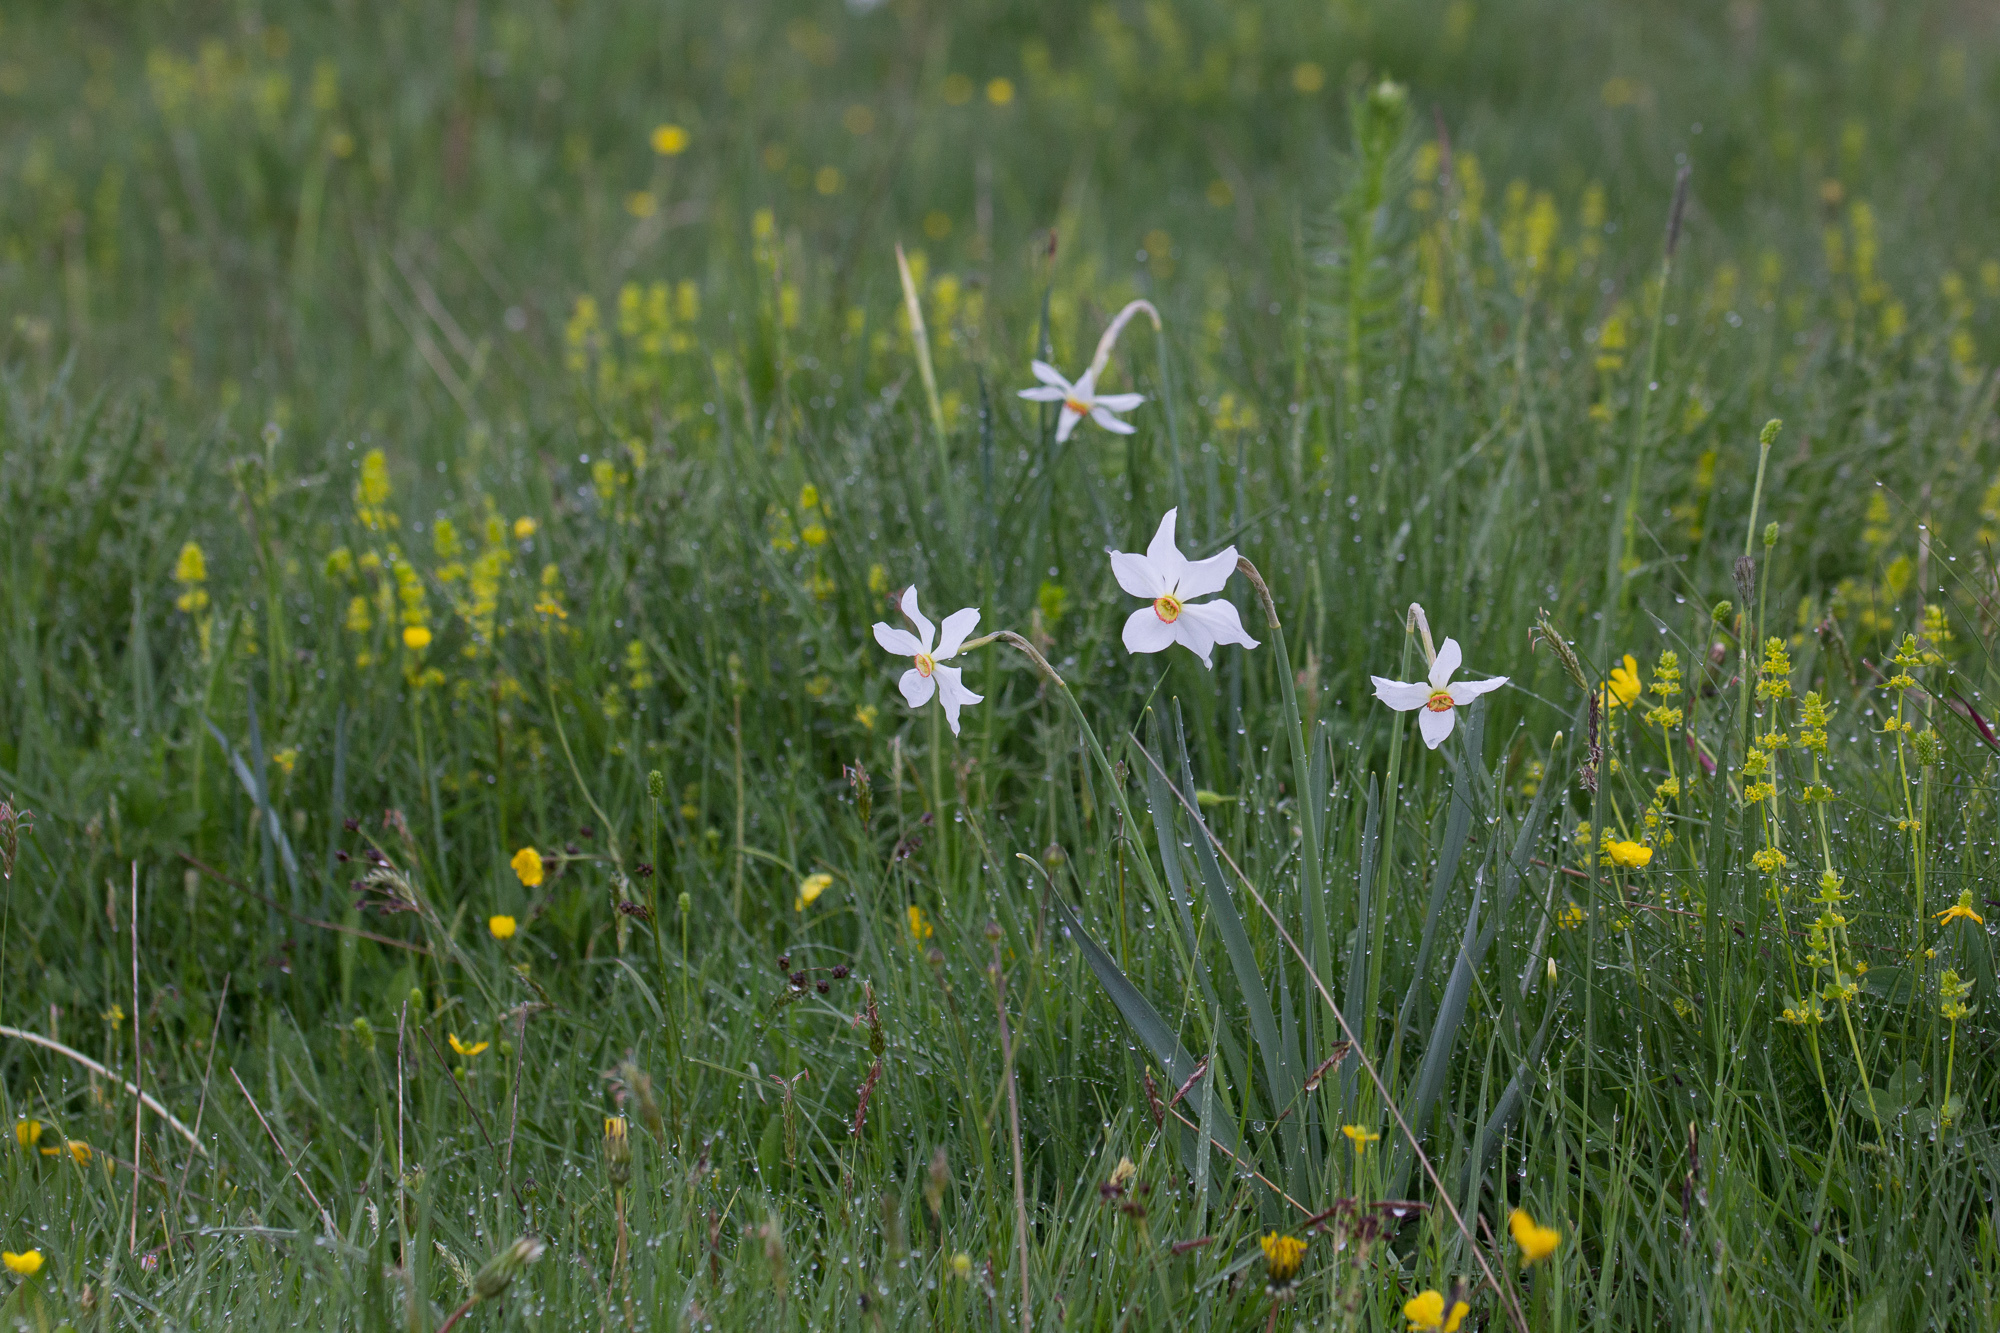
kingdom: Plantae
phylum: Tracheophyta
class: Liliopsida
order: Asparagales
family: Amaryllidaceae
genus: Narcissus
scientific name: Narcissus poeticus
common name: Pheasant's-eye daffodil
